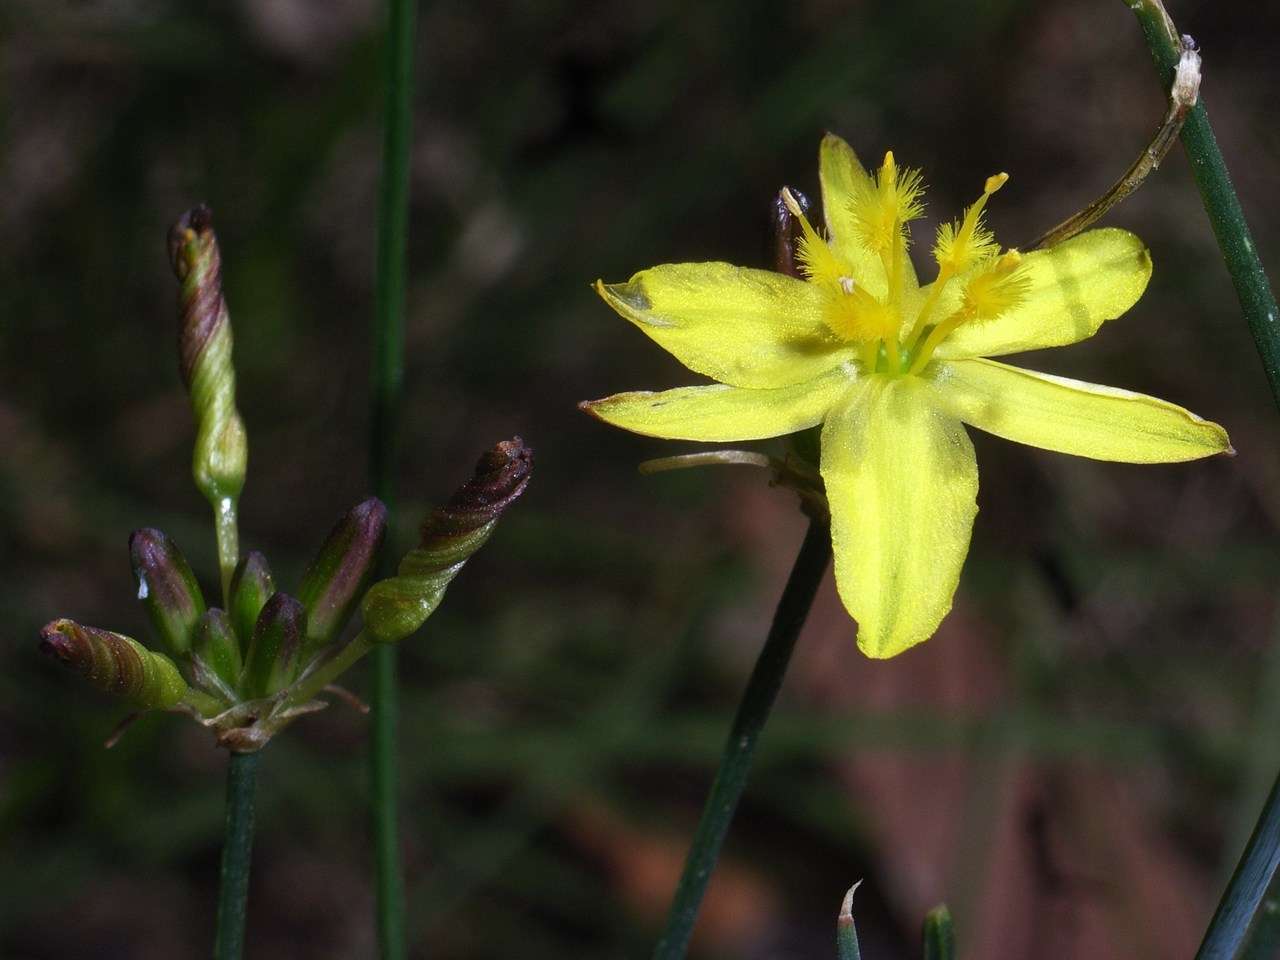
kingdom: Plantae
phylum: Tracheophyta
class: Liliopsida
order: Asparagales
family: Asphodelaceae
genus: Tricoryne
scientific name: Tricoryne elatior
